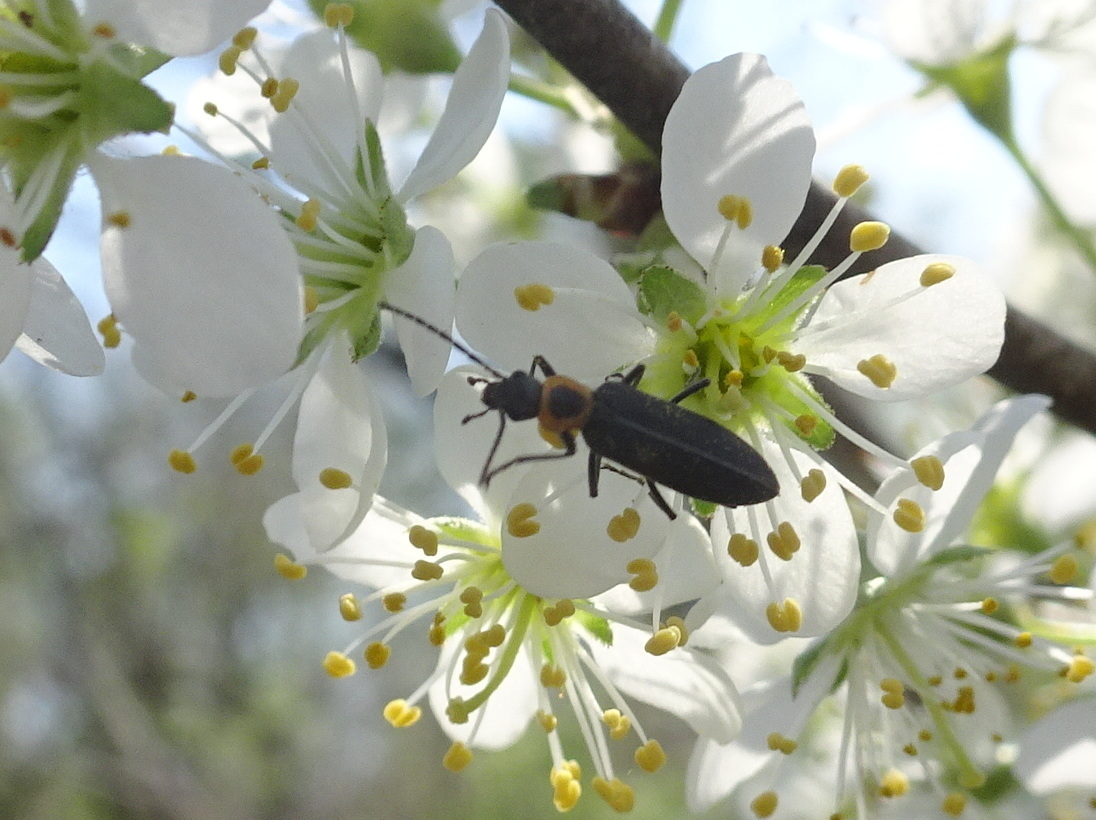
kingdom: Animalia
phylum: Arthropoda
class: Insecta
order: Coleoptera
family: Oedemeridae
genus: Ischnomera
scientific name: Ischnomera
